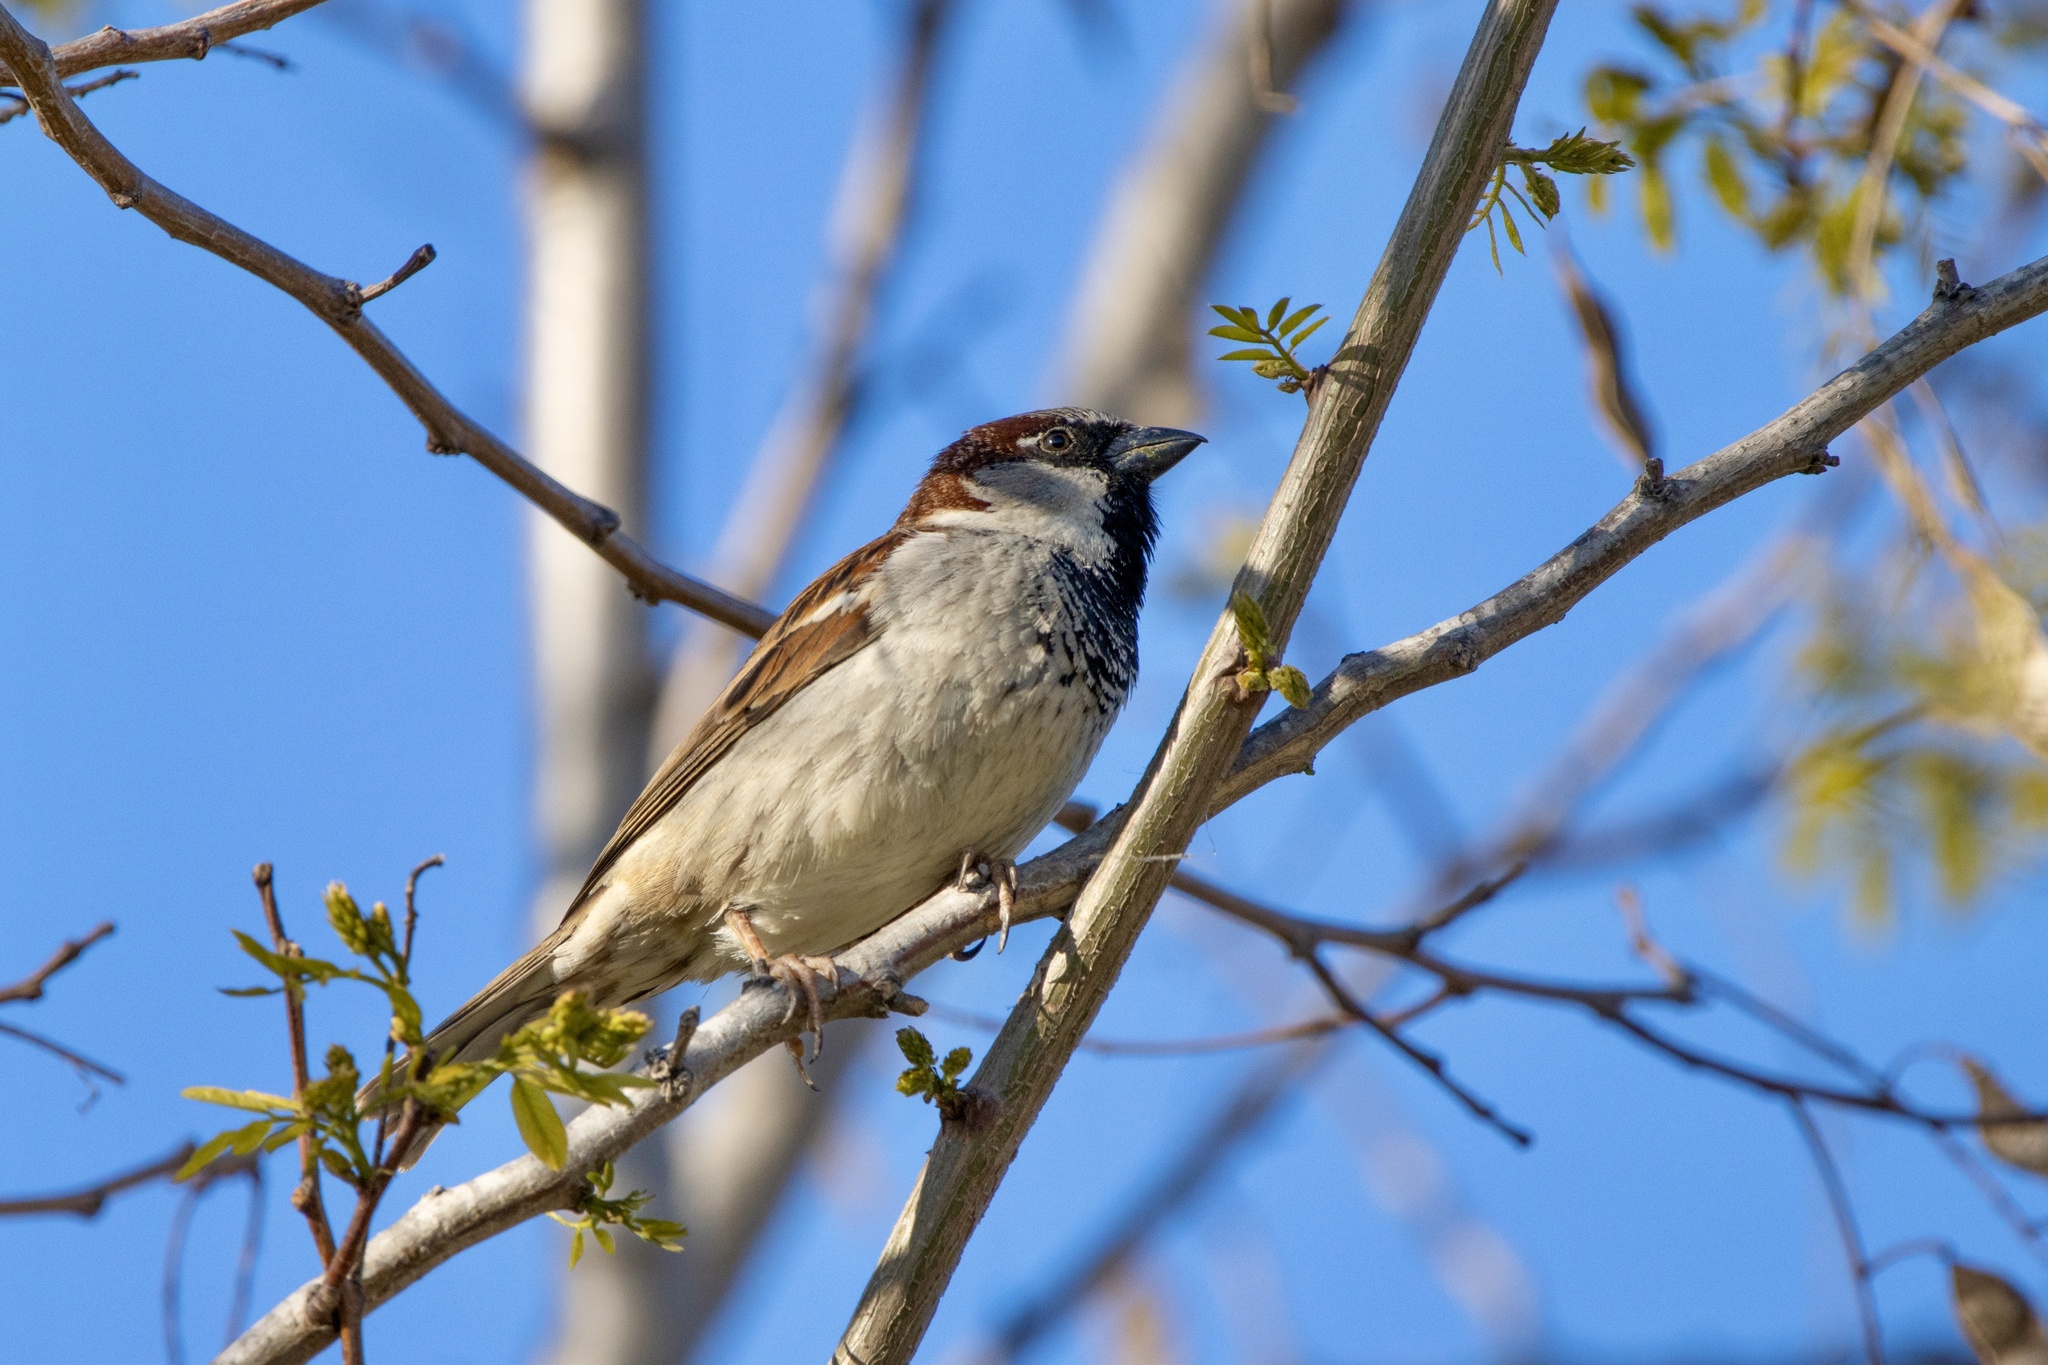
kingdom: Animalia
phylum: Chordata
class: Aves
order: Passeriformes
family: Passeridae
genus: Passer
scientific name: Passer domesticus
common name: House sparrow
